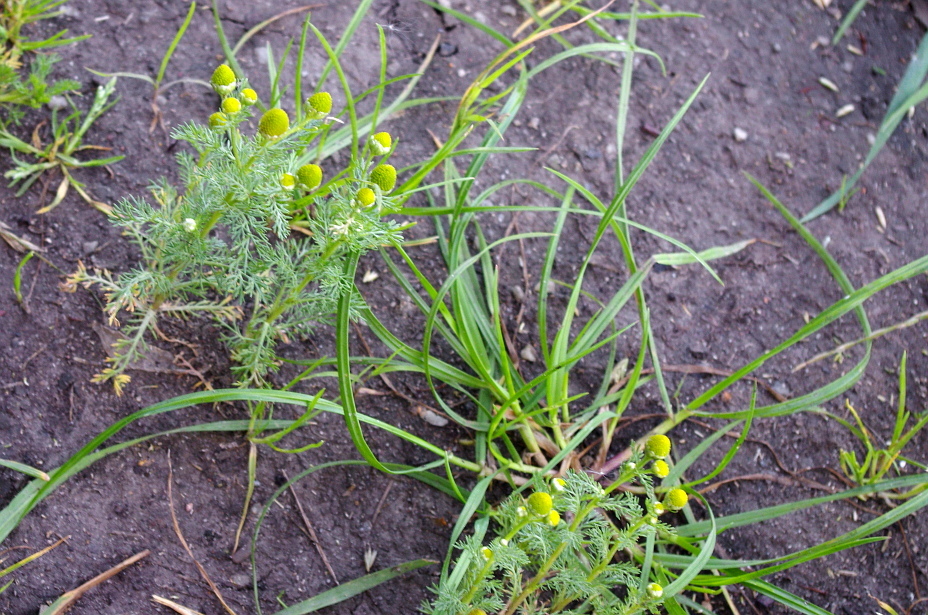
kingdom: Plantae
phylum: Tracheophyta
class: Magnoliopsida
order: Asterales
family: Asteraceae
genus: Matricaria
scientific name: Matricaria discoidea
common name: Disc mayweed
